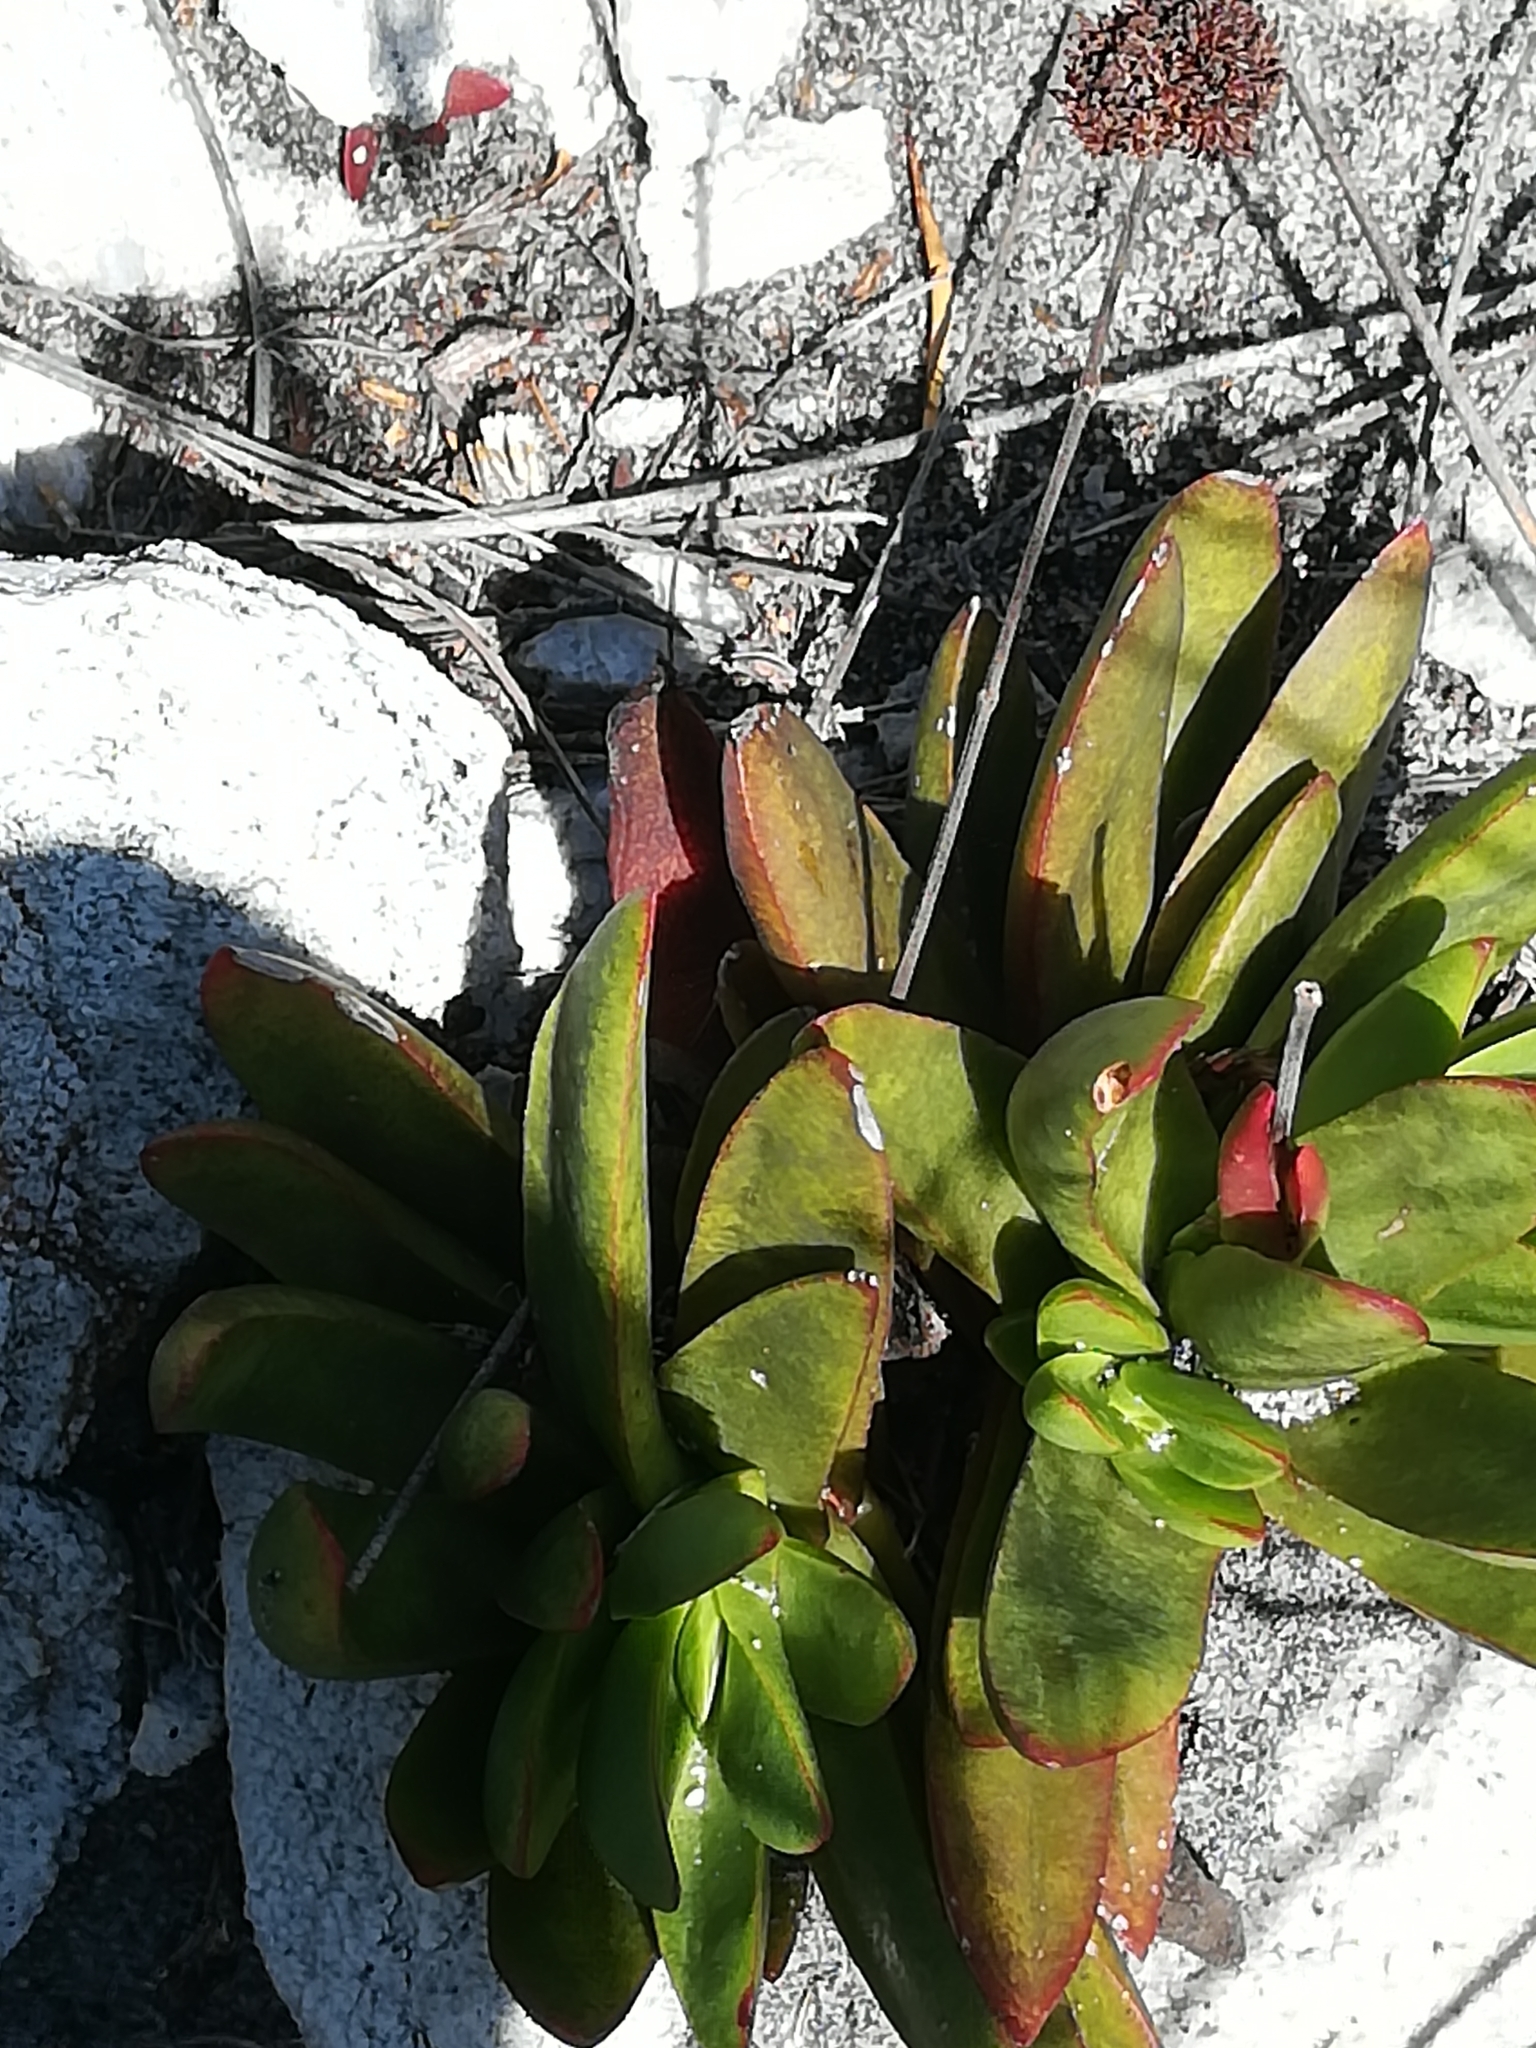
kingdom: Plantae
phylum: Tracheophyta
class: Magnoliopsida
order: Saxifragales
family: Crassulaceae
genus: Crassula
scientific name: Crassula nudicaulis
